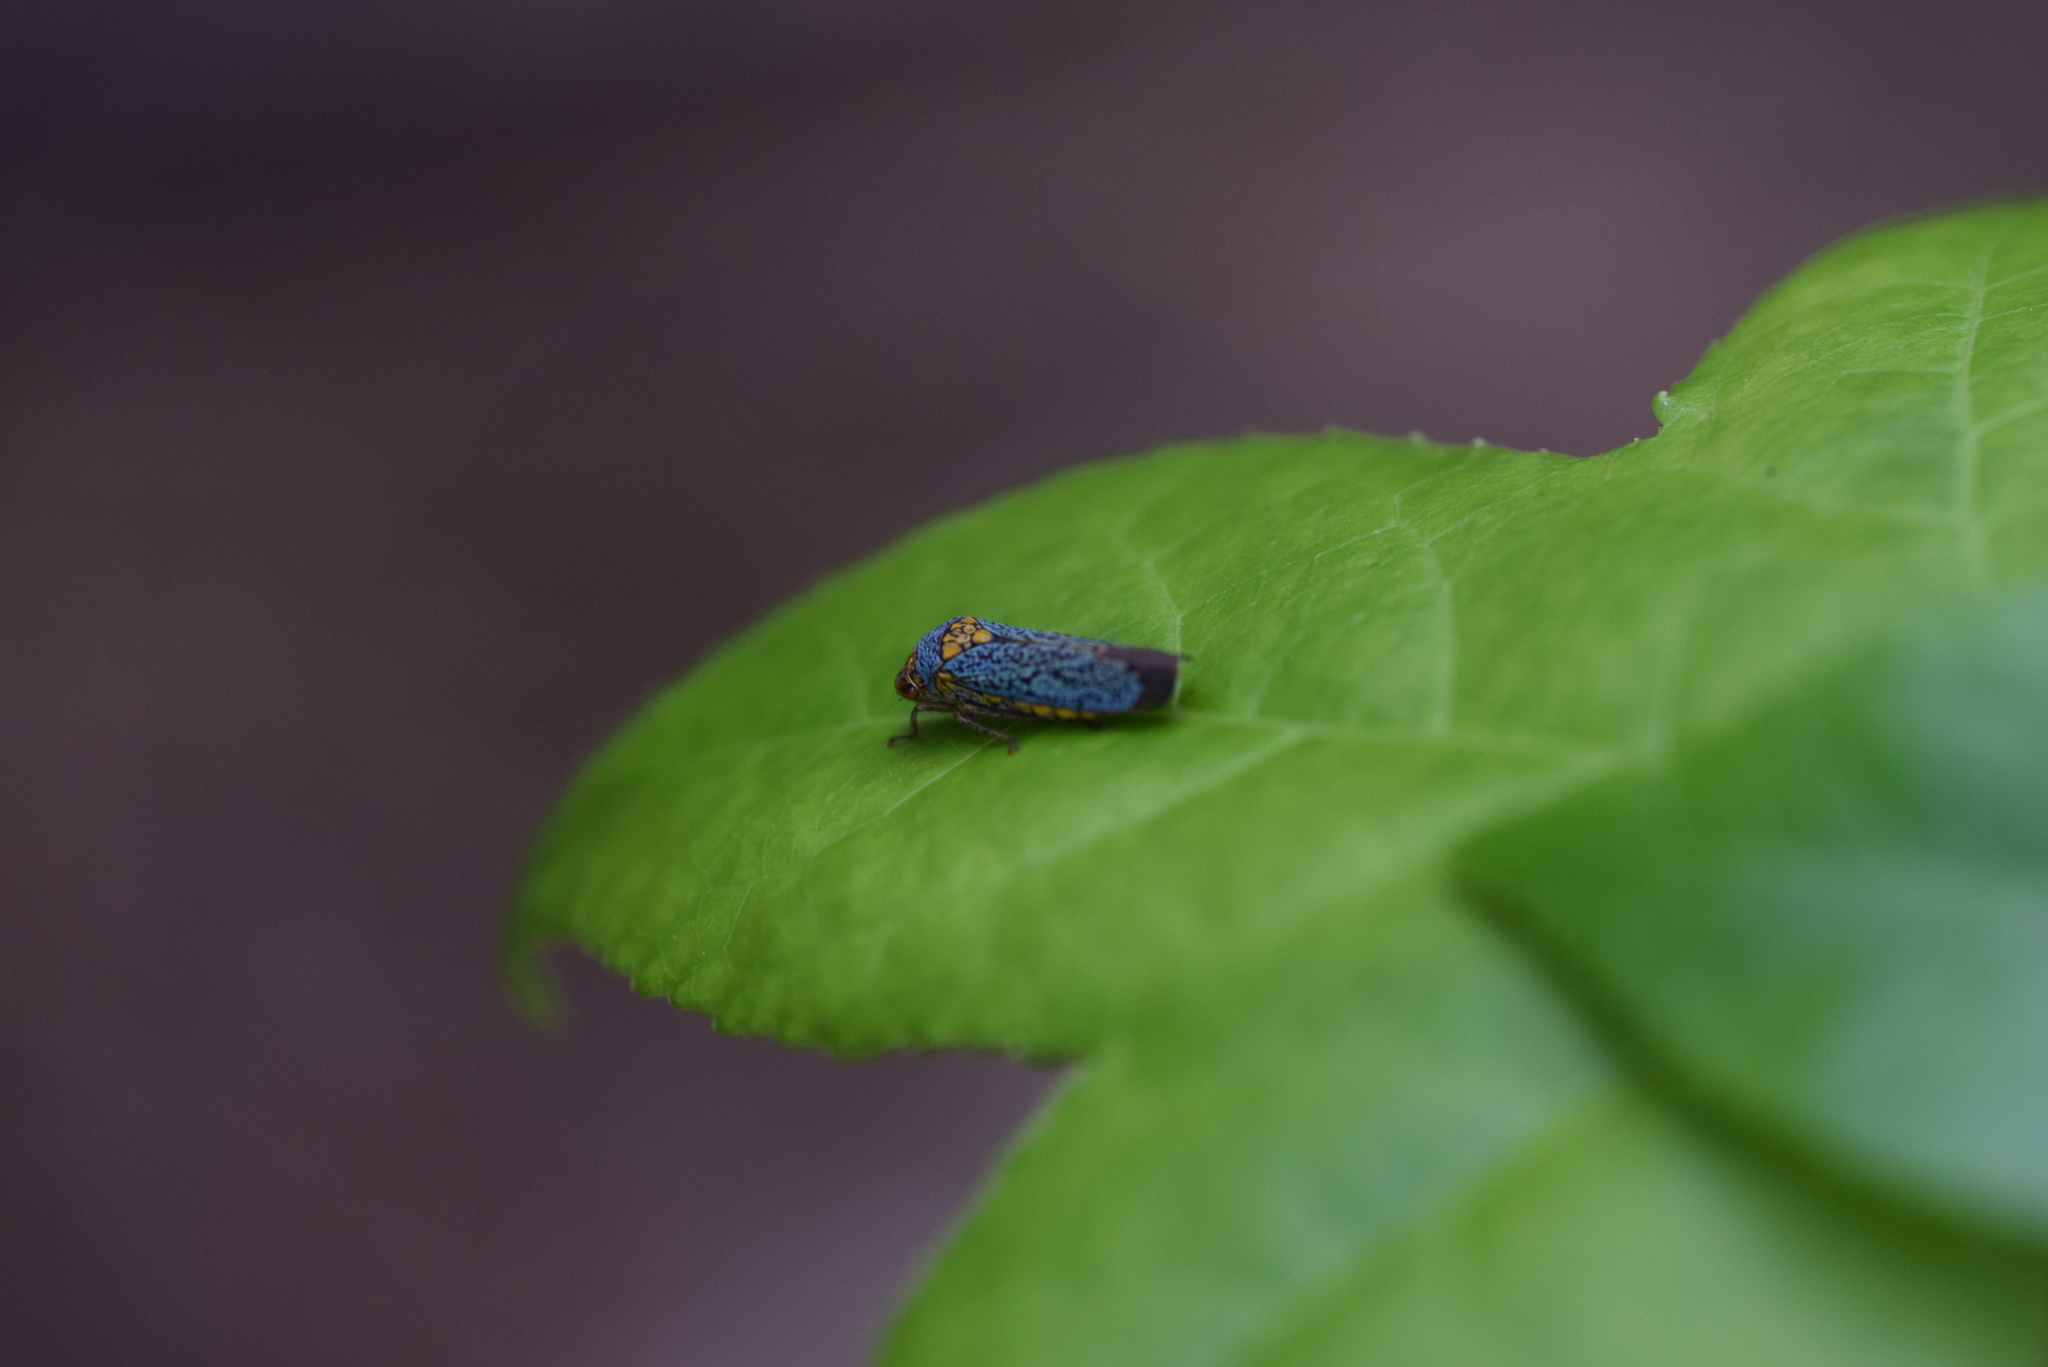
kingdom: Animalia
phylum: Arthropoda
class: Insecta
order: Hemiptera
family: Cicadellidae
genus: Oncometopia
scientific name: Oncometopia orbona
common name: Broad-headed sharpshooter
